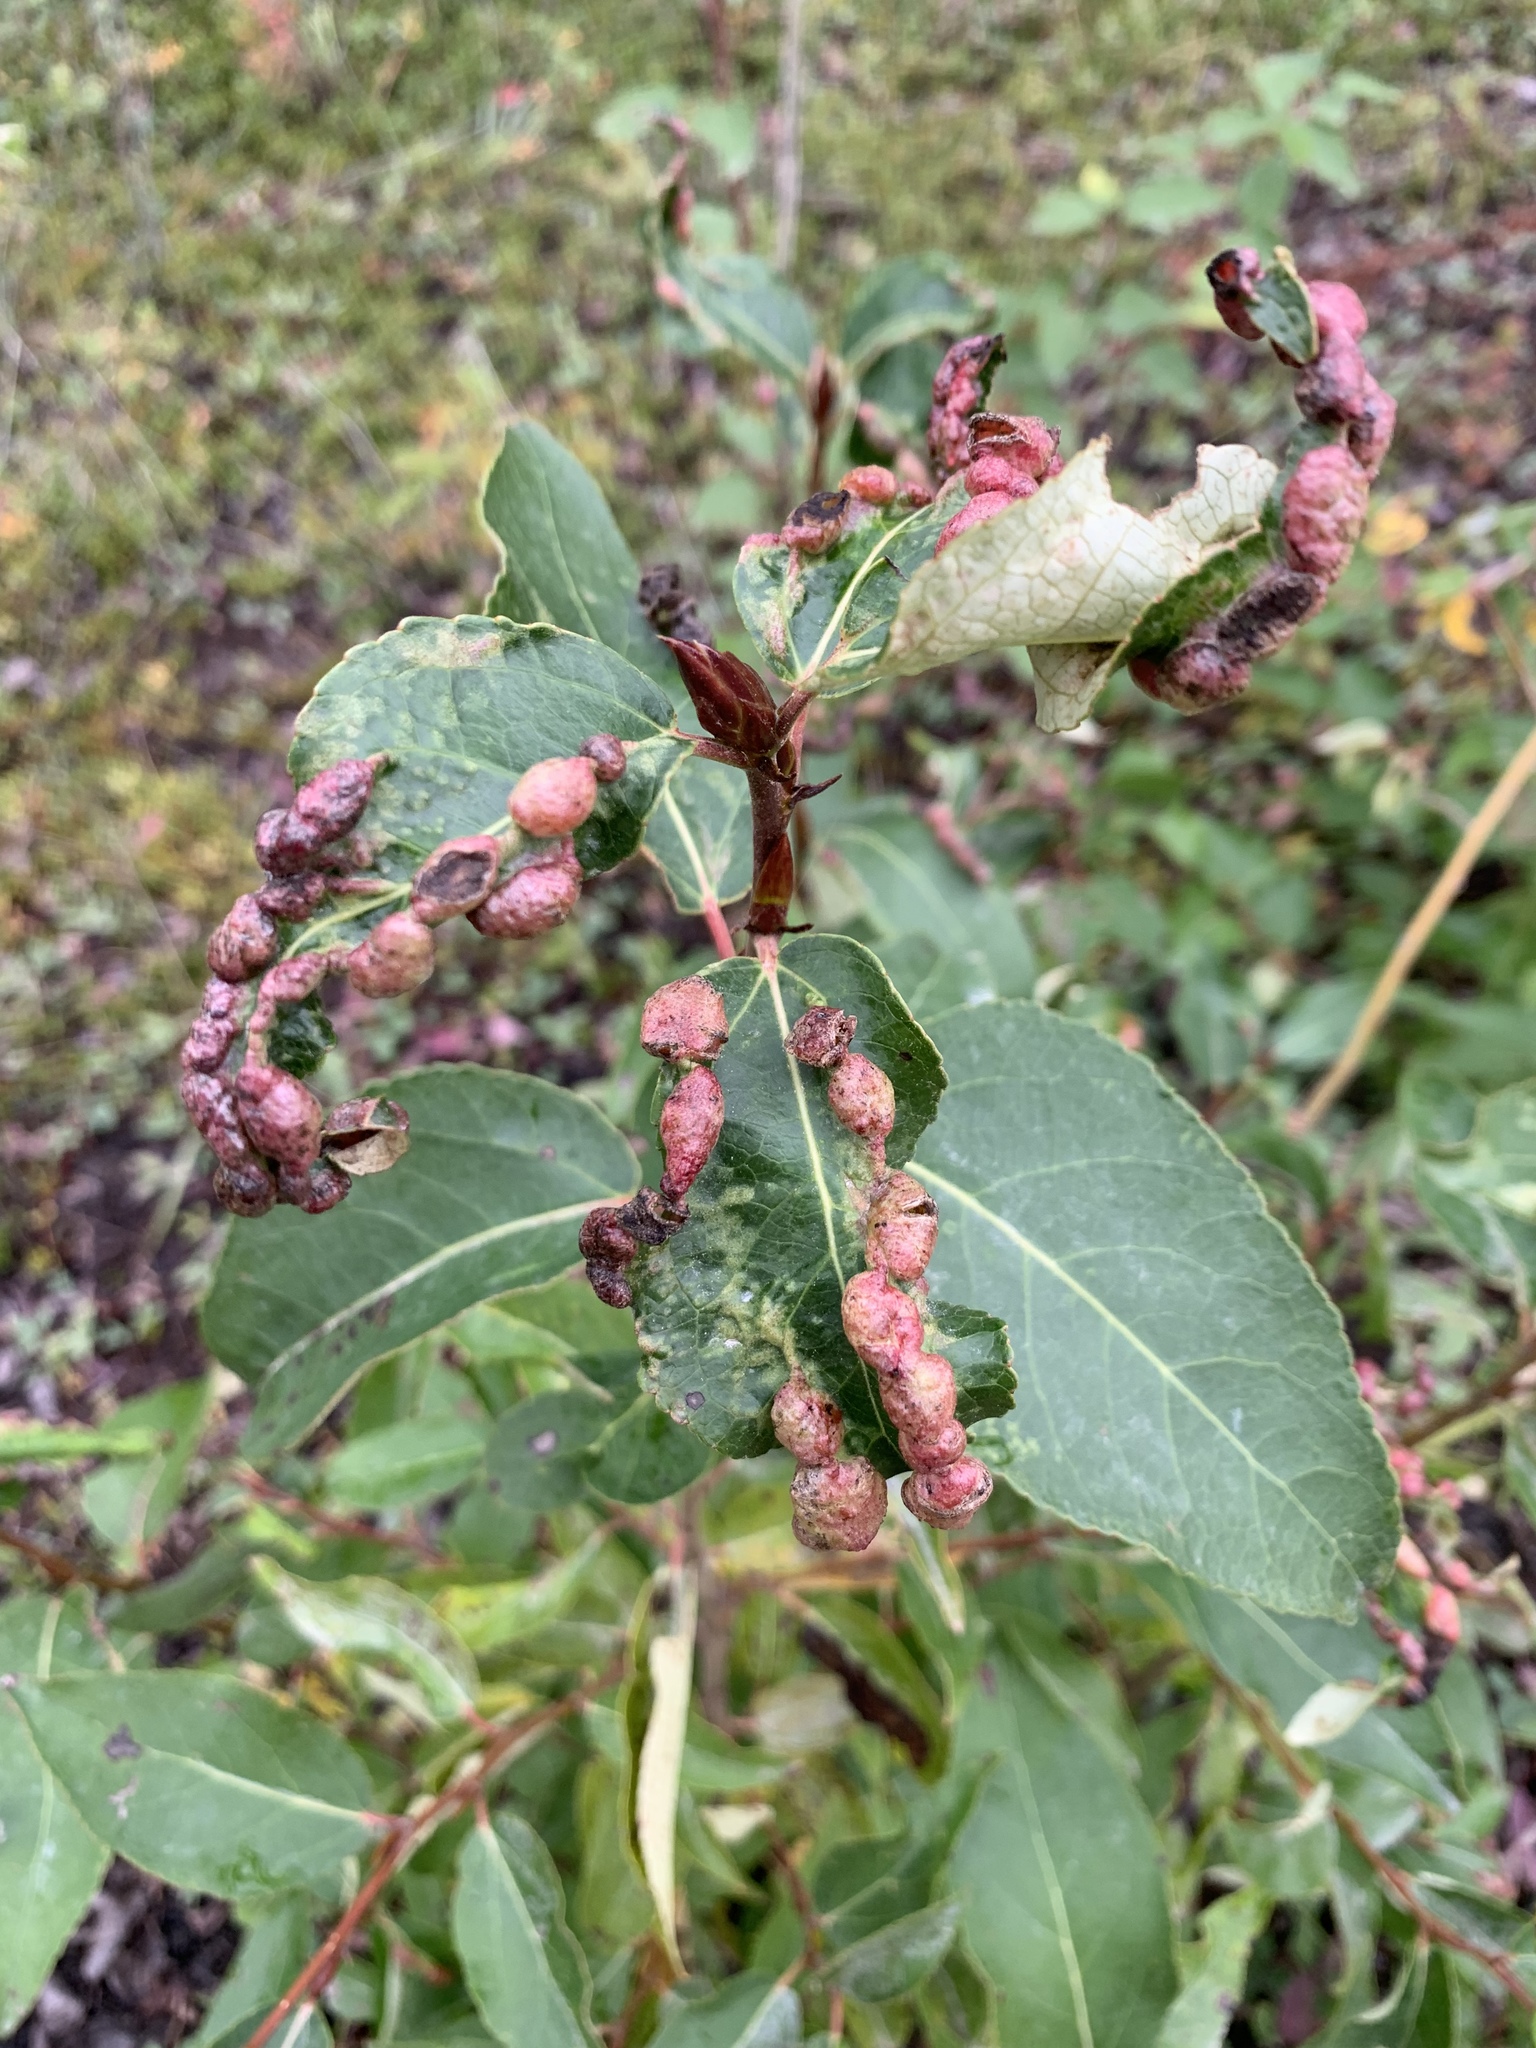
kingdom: Animalia
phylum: Arthropoda
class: Insecta
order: Hemiptera
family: Aphididae
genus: Thecabius
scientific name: Thecabius populimonilis
